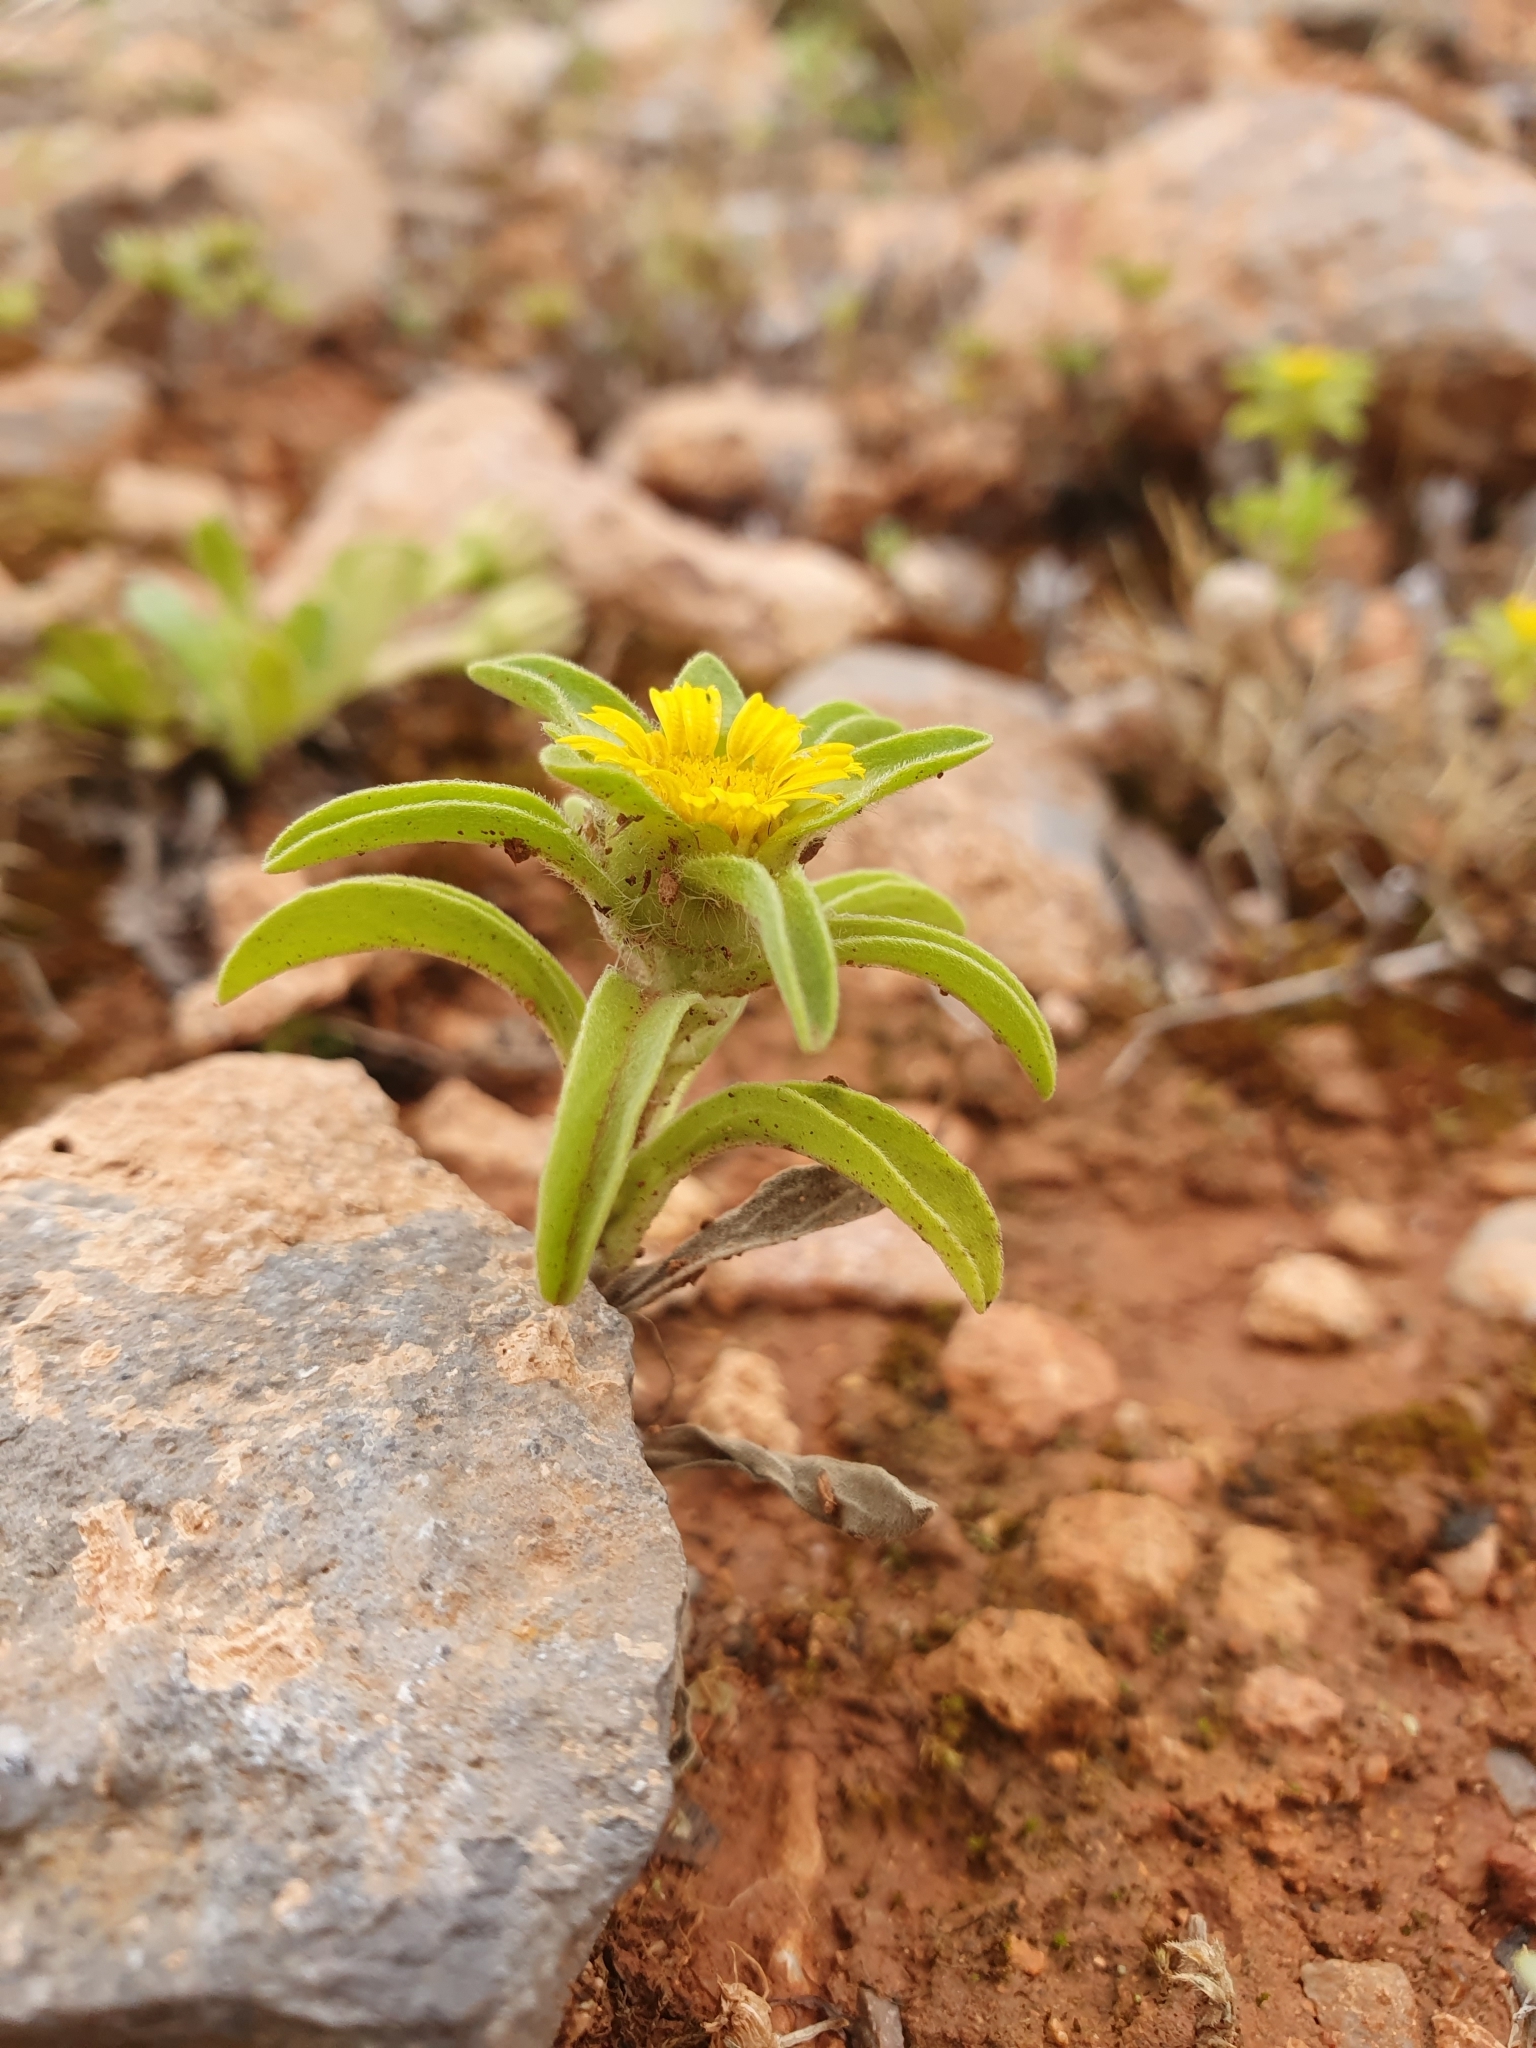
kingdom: Plantae
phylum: Tracheophyta
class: Magnoliopsida
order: Asterales
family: Asteraceae
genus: Asteriscus
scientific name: Asteriscus aquaticus
